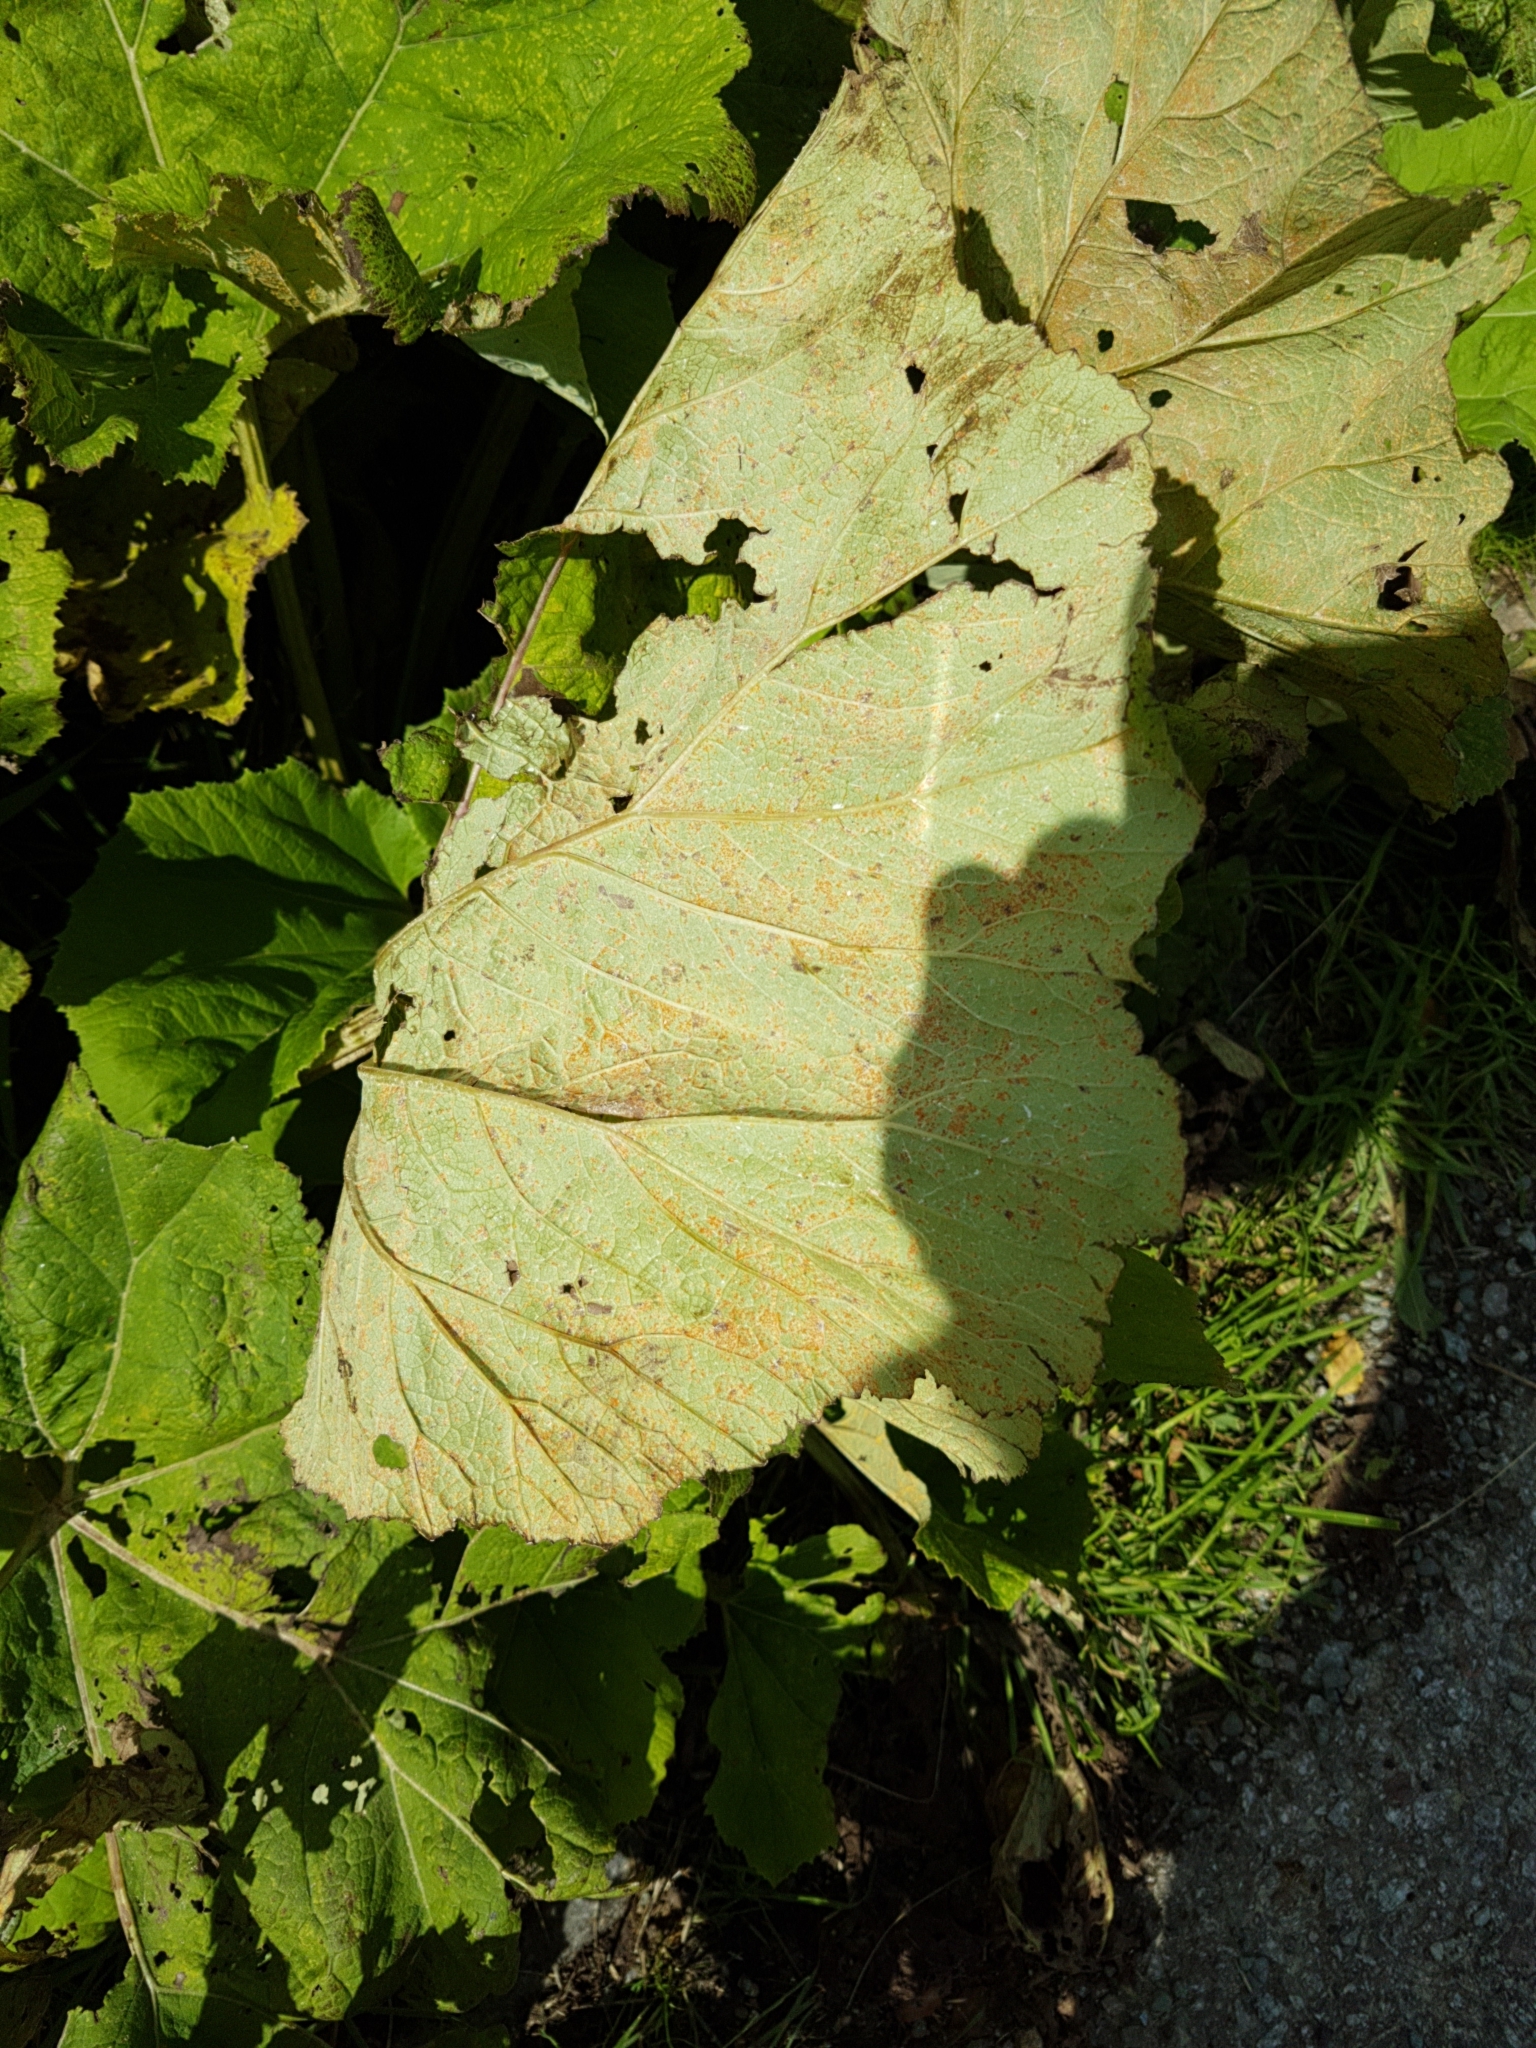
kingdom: Plantae
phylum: Tracheophyta
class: Magnoliopsida
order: Asterales
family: Asteraceae
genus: Petasites
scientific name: Petasites hybridus
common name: Butterbur
